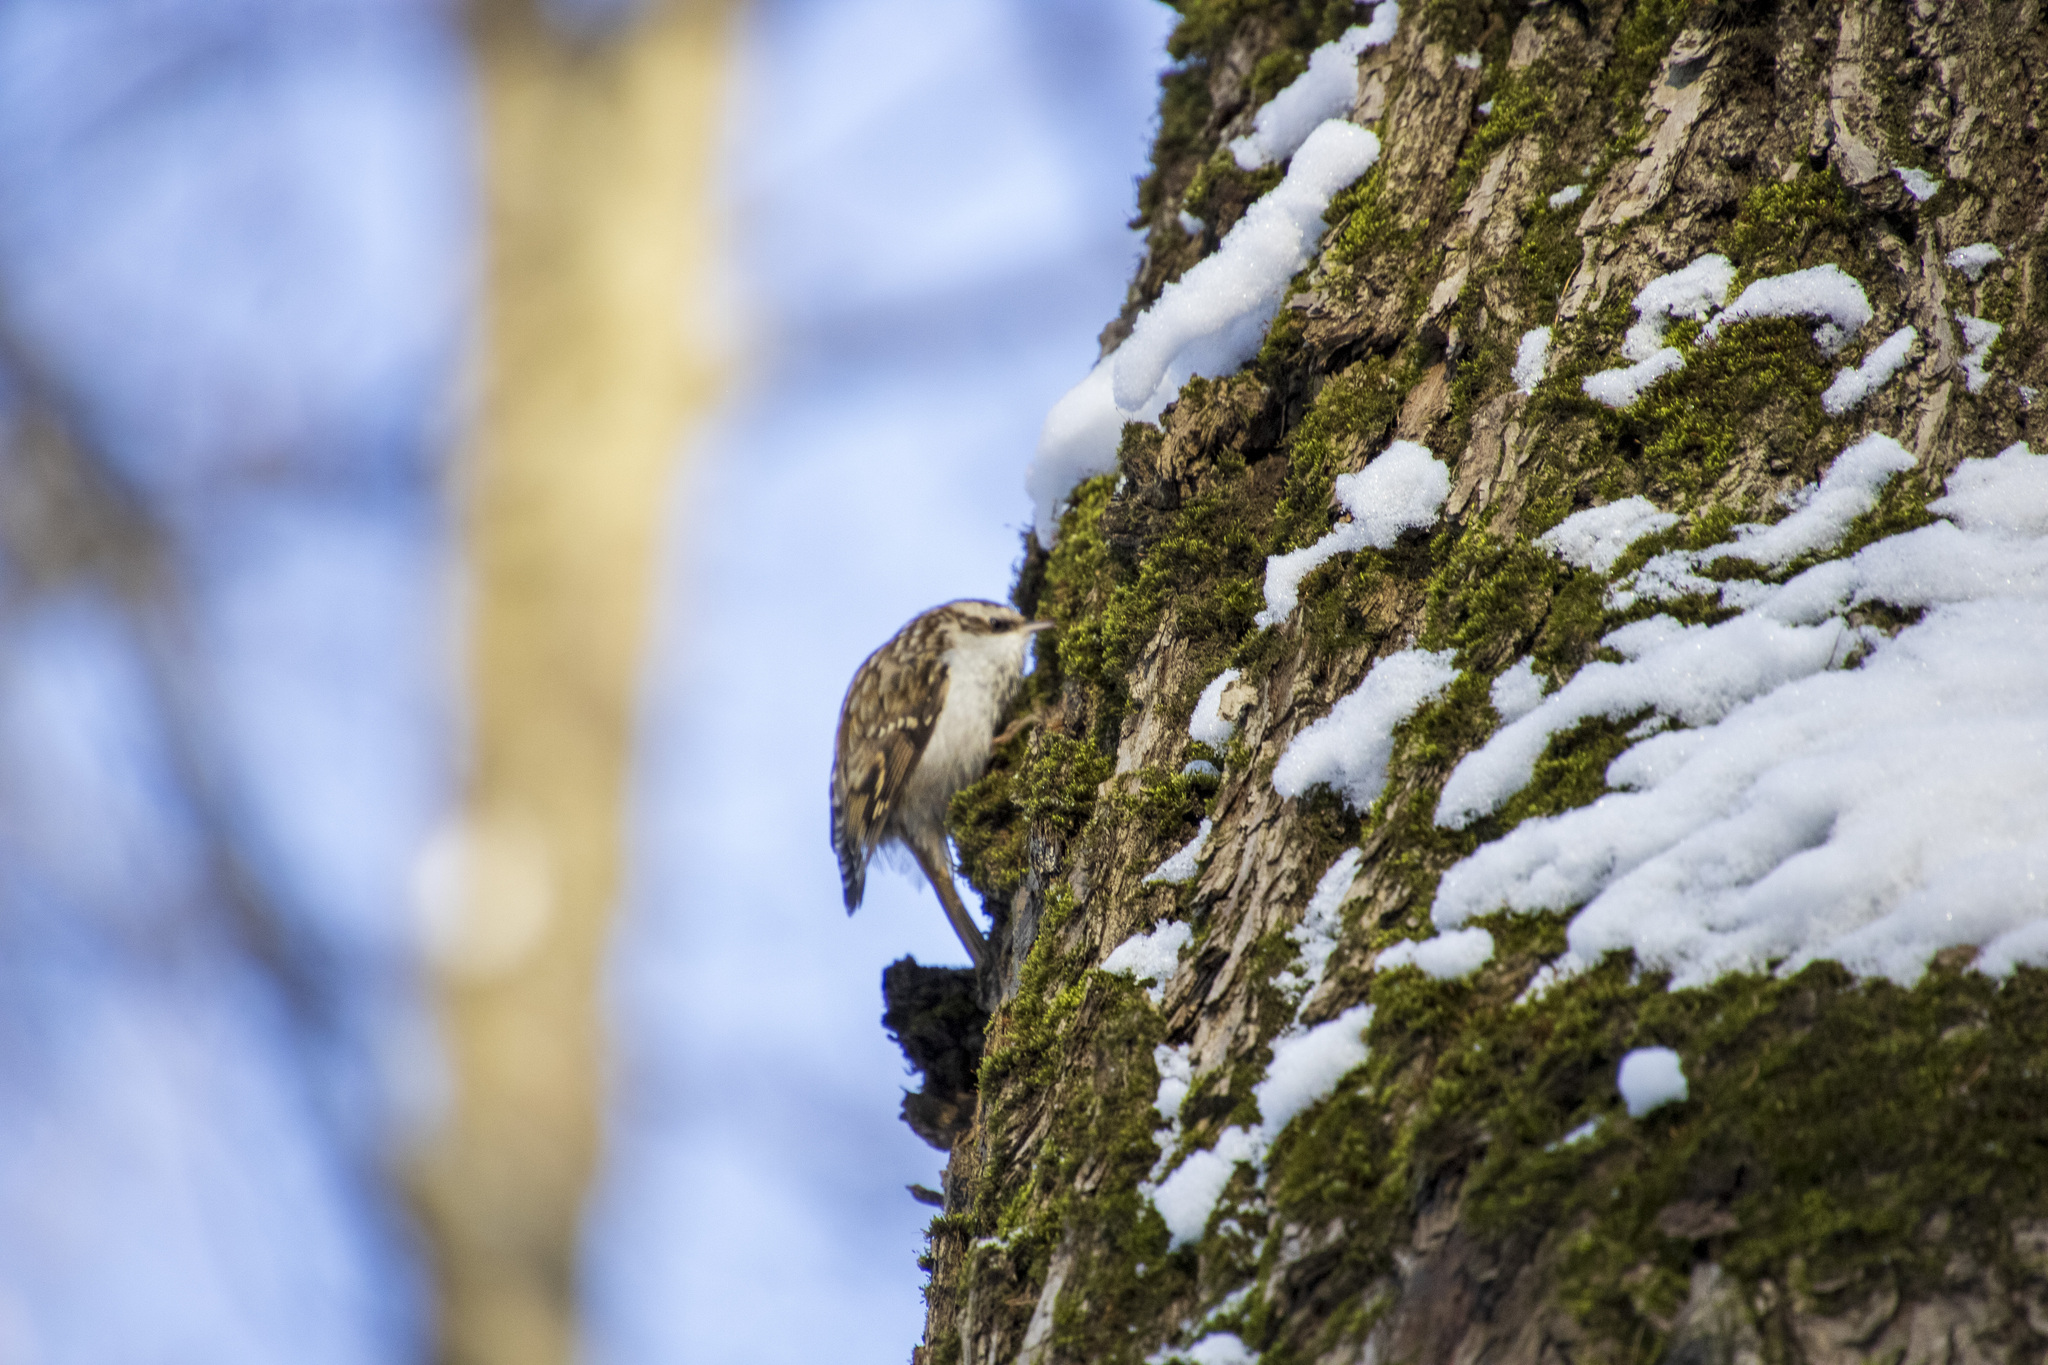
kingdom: Animalia
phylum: Chordata
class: Aves
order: Passeriformes
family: Certhiidae
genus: Certhia
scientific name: Certhia familiaris
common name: Eurasian treecreeper
